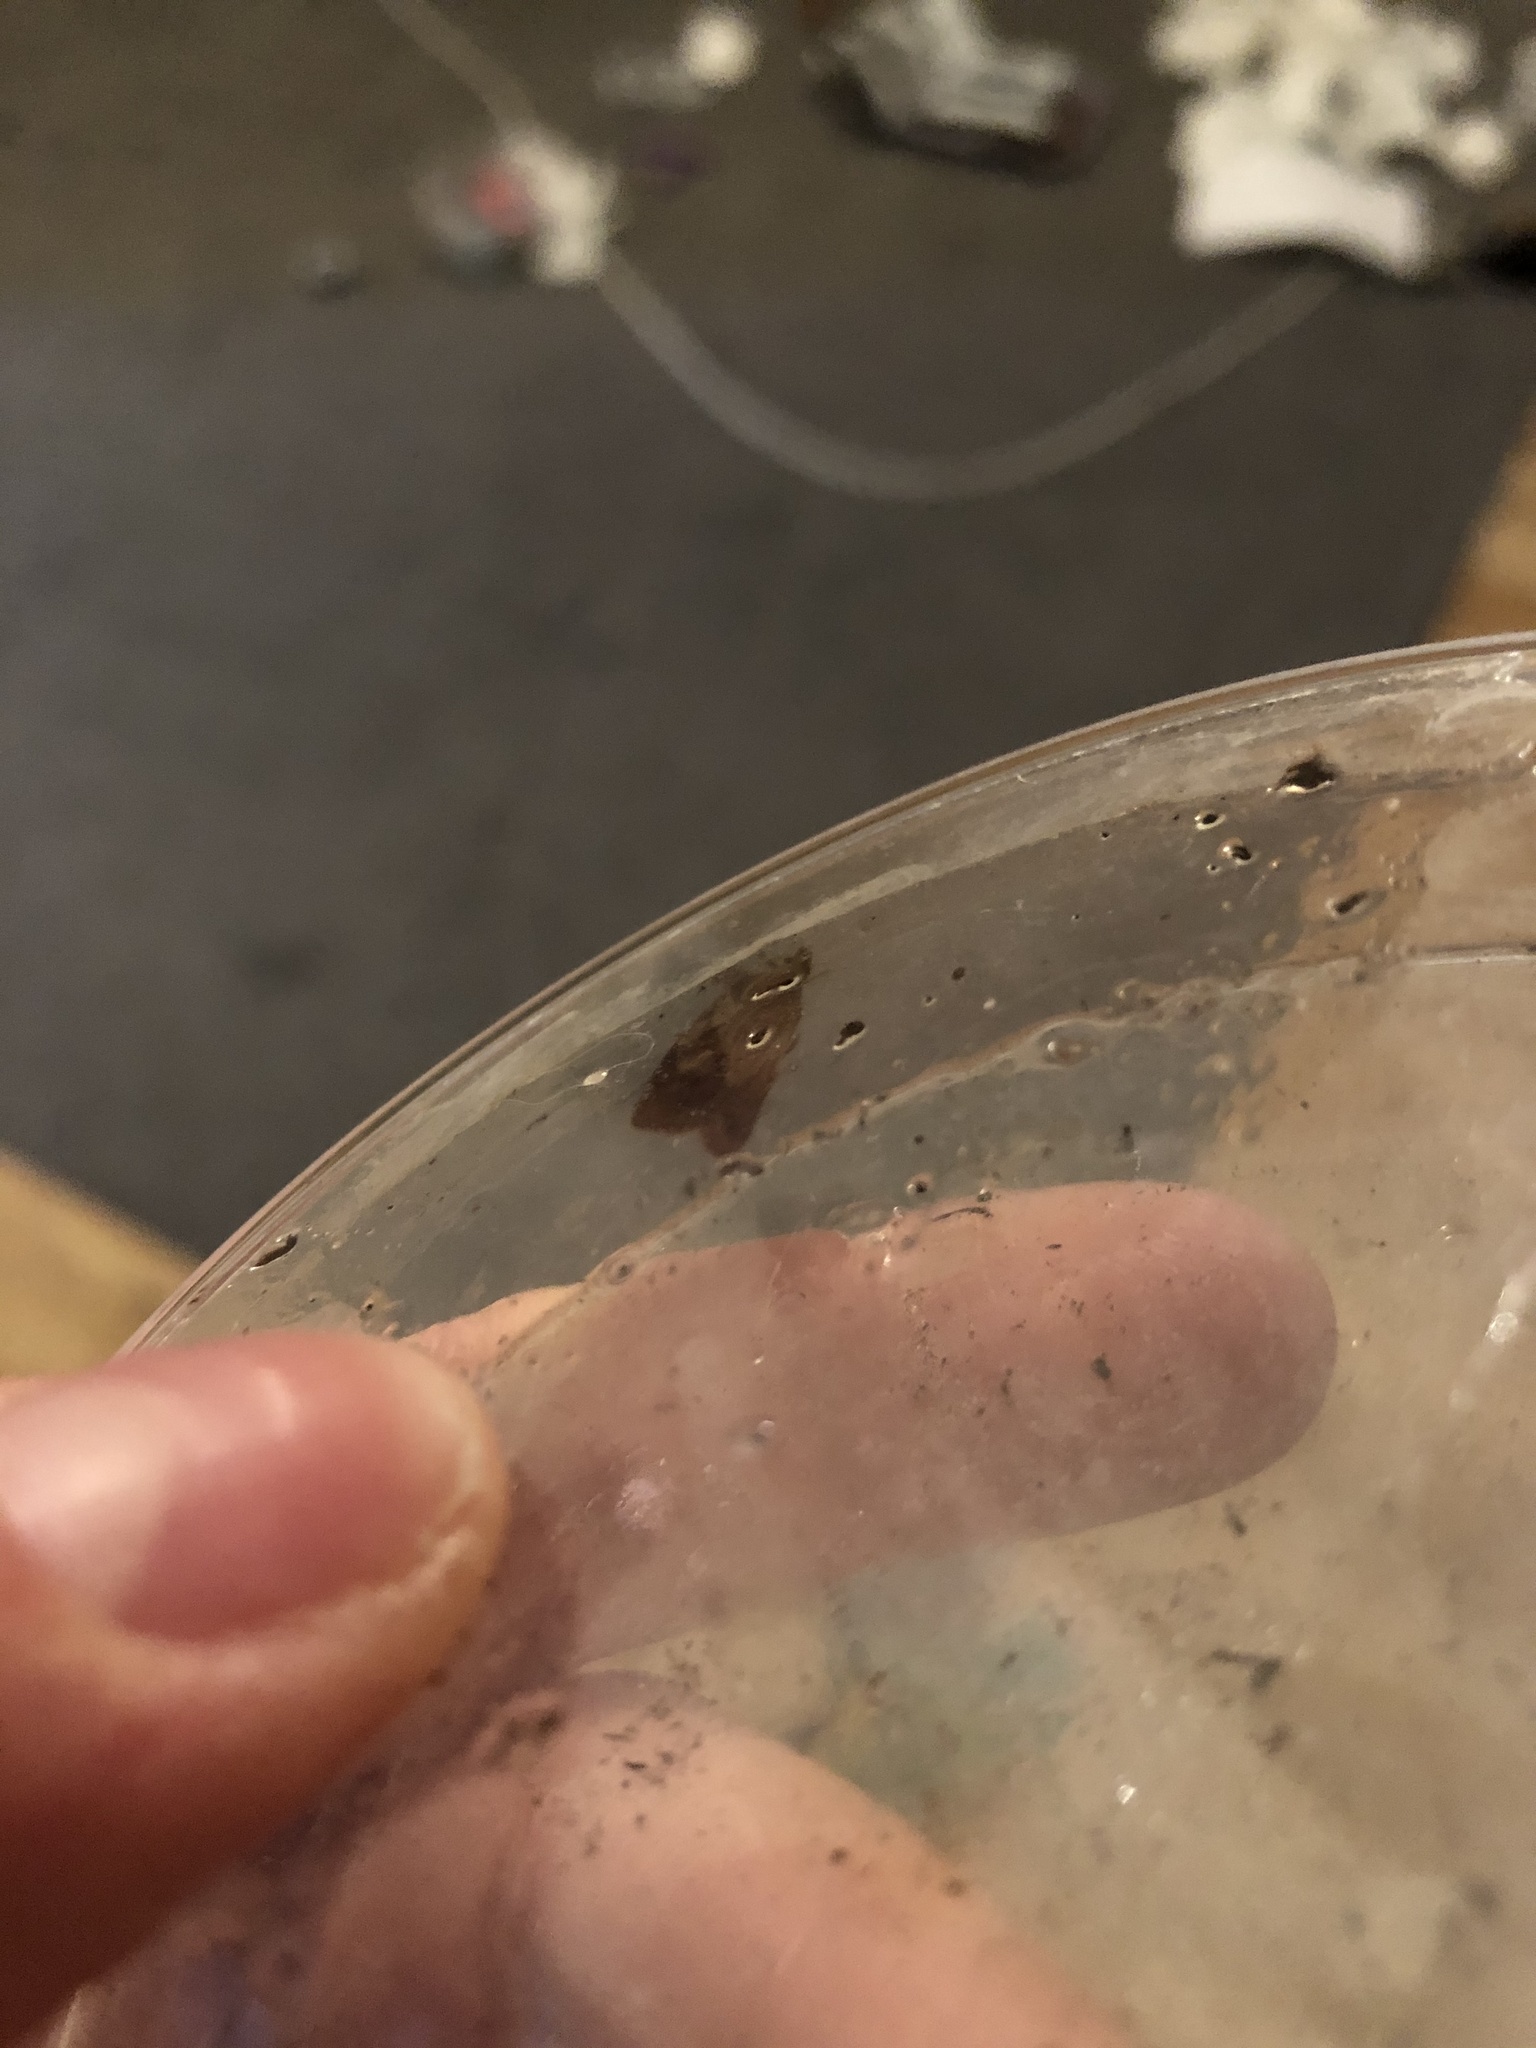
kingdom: Animalia
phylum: Arthropoda
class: Insecta
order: Lepidoptera
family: Tortricidae
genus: Epiphyas
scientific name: Epiphyas postvittana
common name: Light brown apple moth
